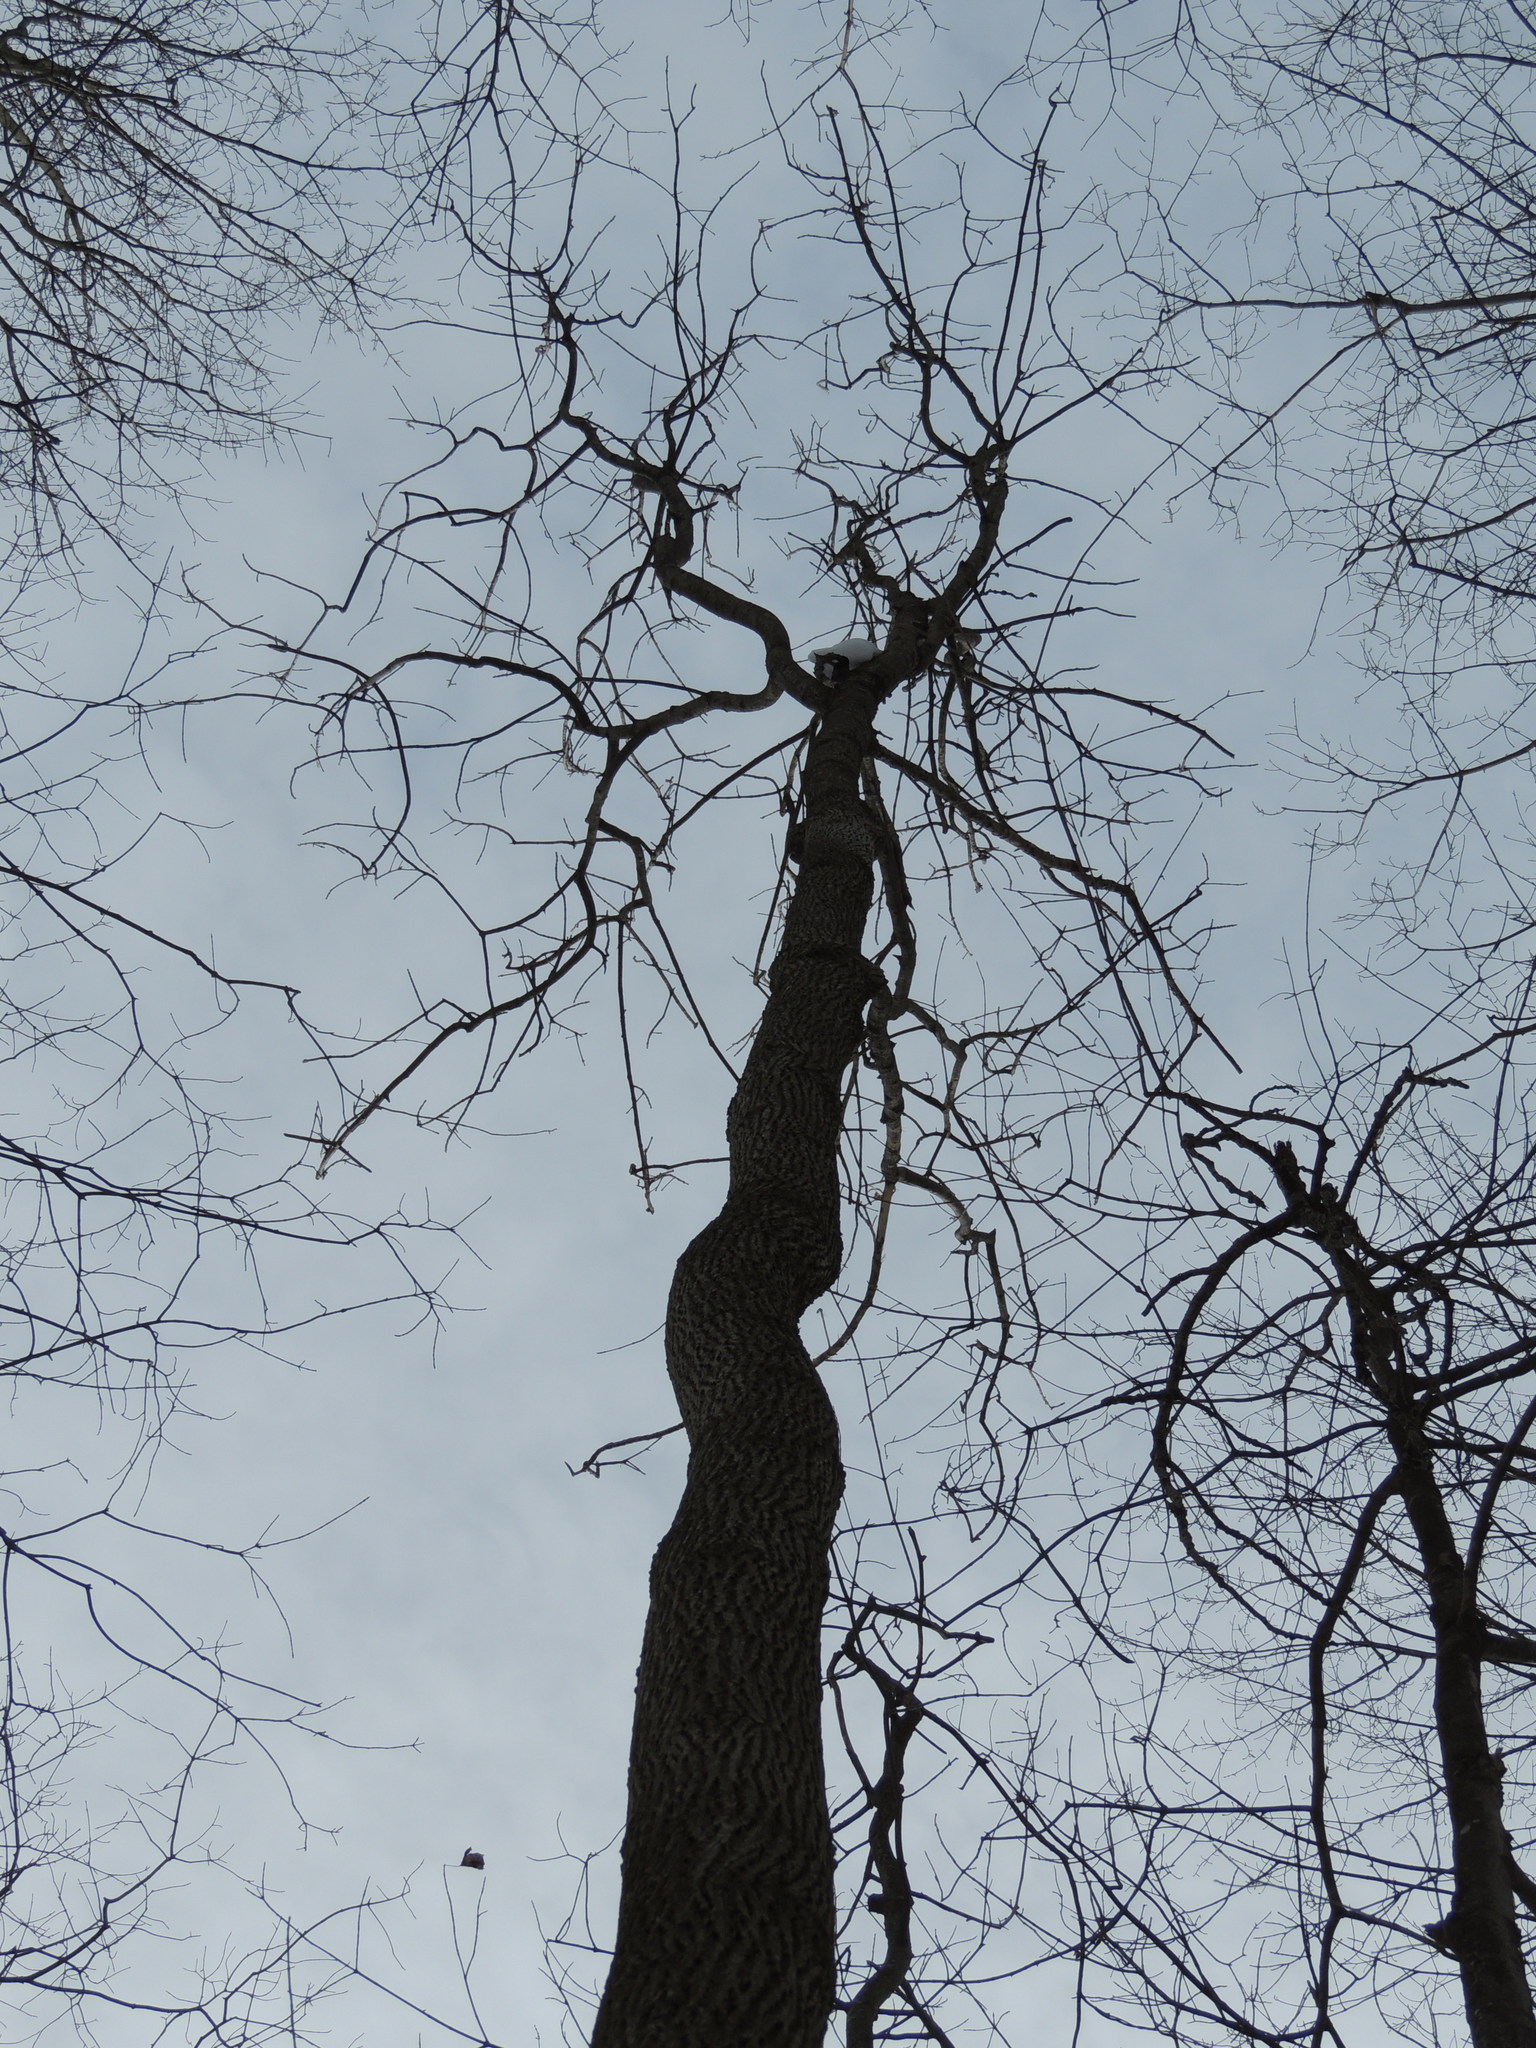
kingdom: Plantae
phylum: Tracheophyta
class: Magnoliopsida
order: Lamiales
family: Oleaceae
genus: Fraxinus
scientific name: Fraxinus americana
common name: White ash
